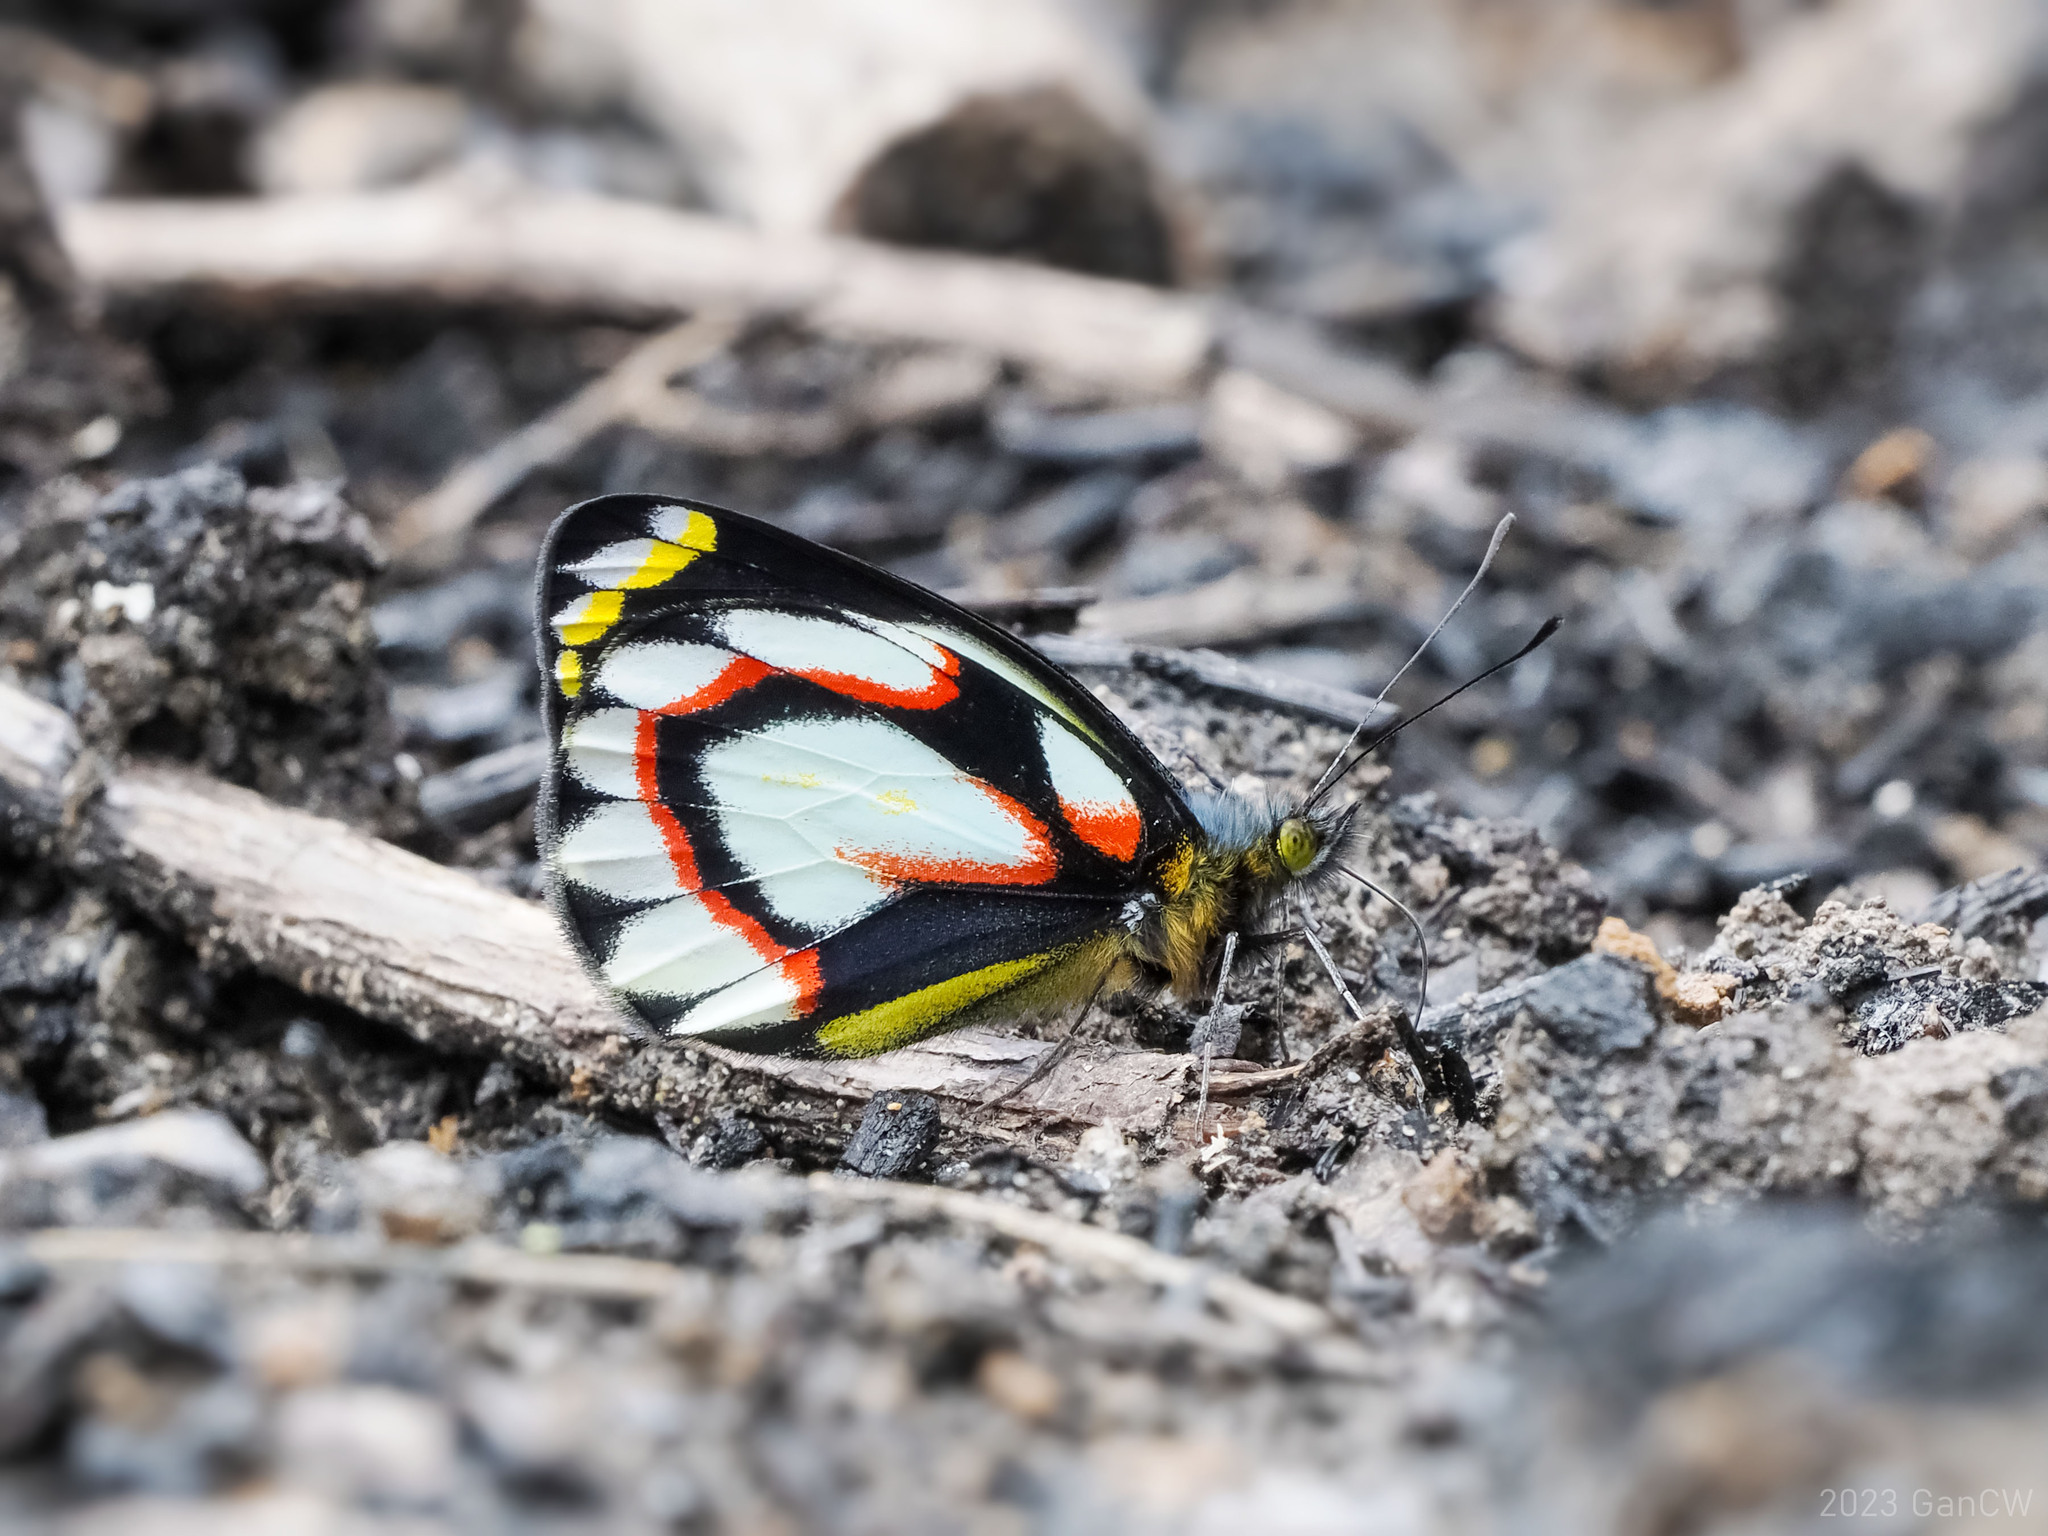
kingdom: Animalia
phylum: Arthropoda
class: Insecta
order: Lepidoptera
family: Pieridae
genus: Delias
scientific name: Delias flavistriga
